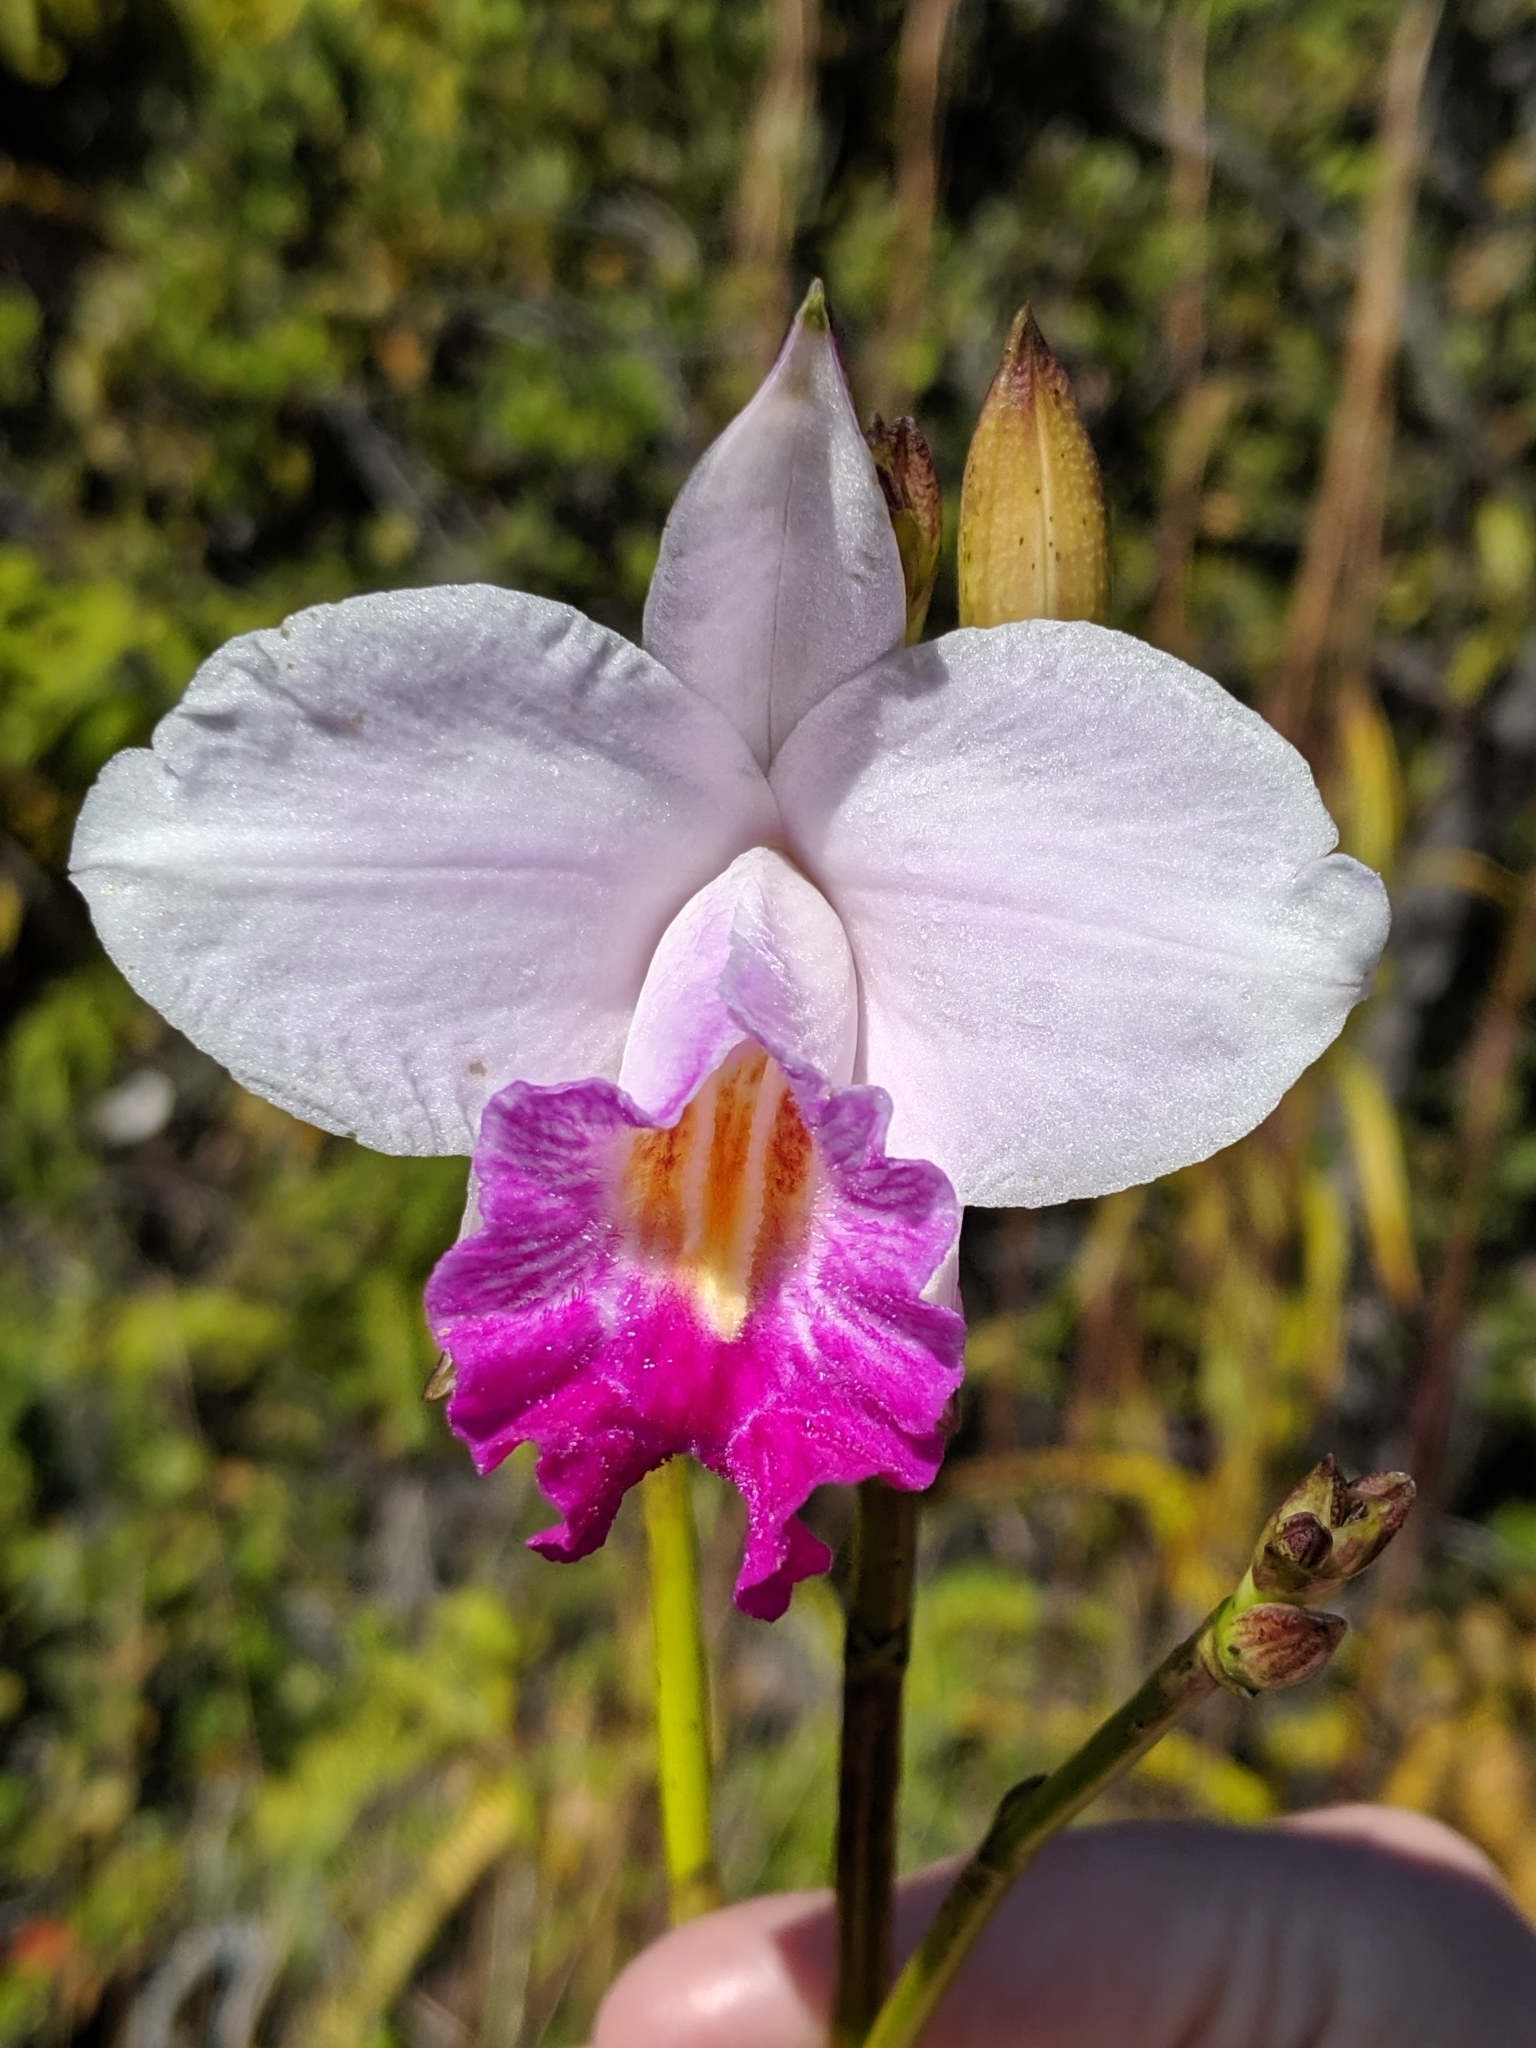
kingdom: Plantae
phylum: Tracheophyta
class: Liliopsida
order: Asparagales
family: Orchidaceae
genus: Arundina
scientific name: Arundina graminifolia
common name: Bamboo orchid
